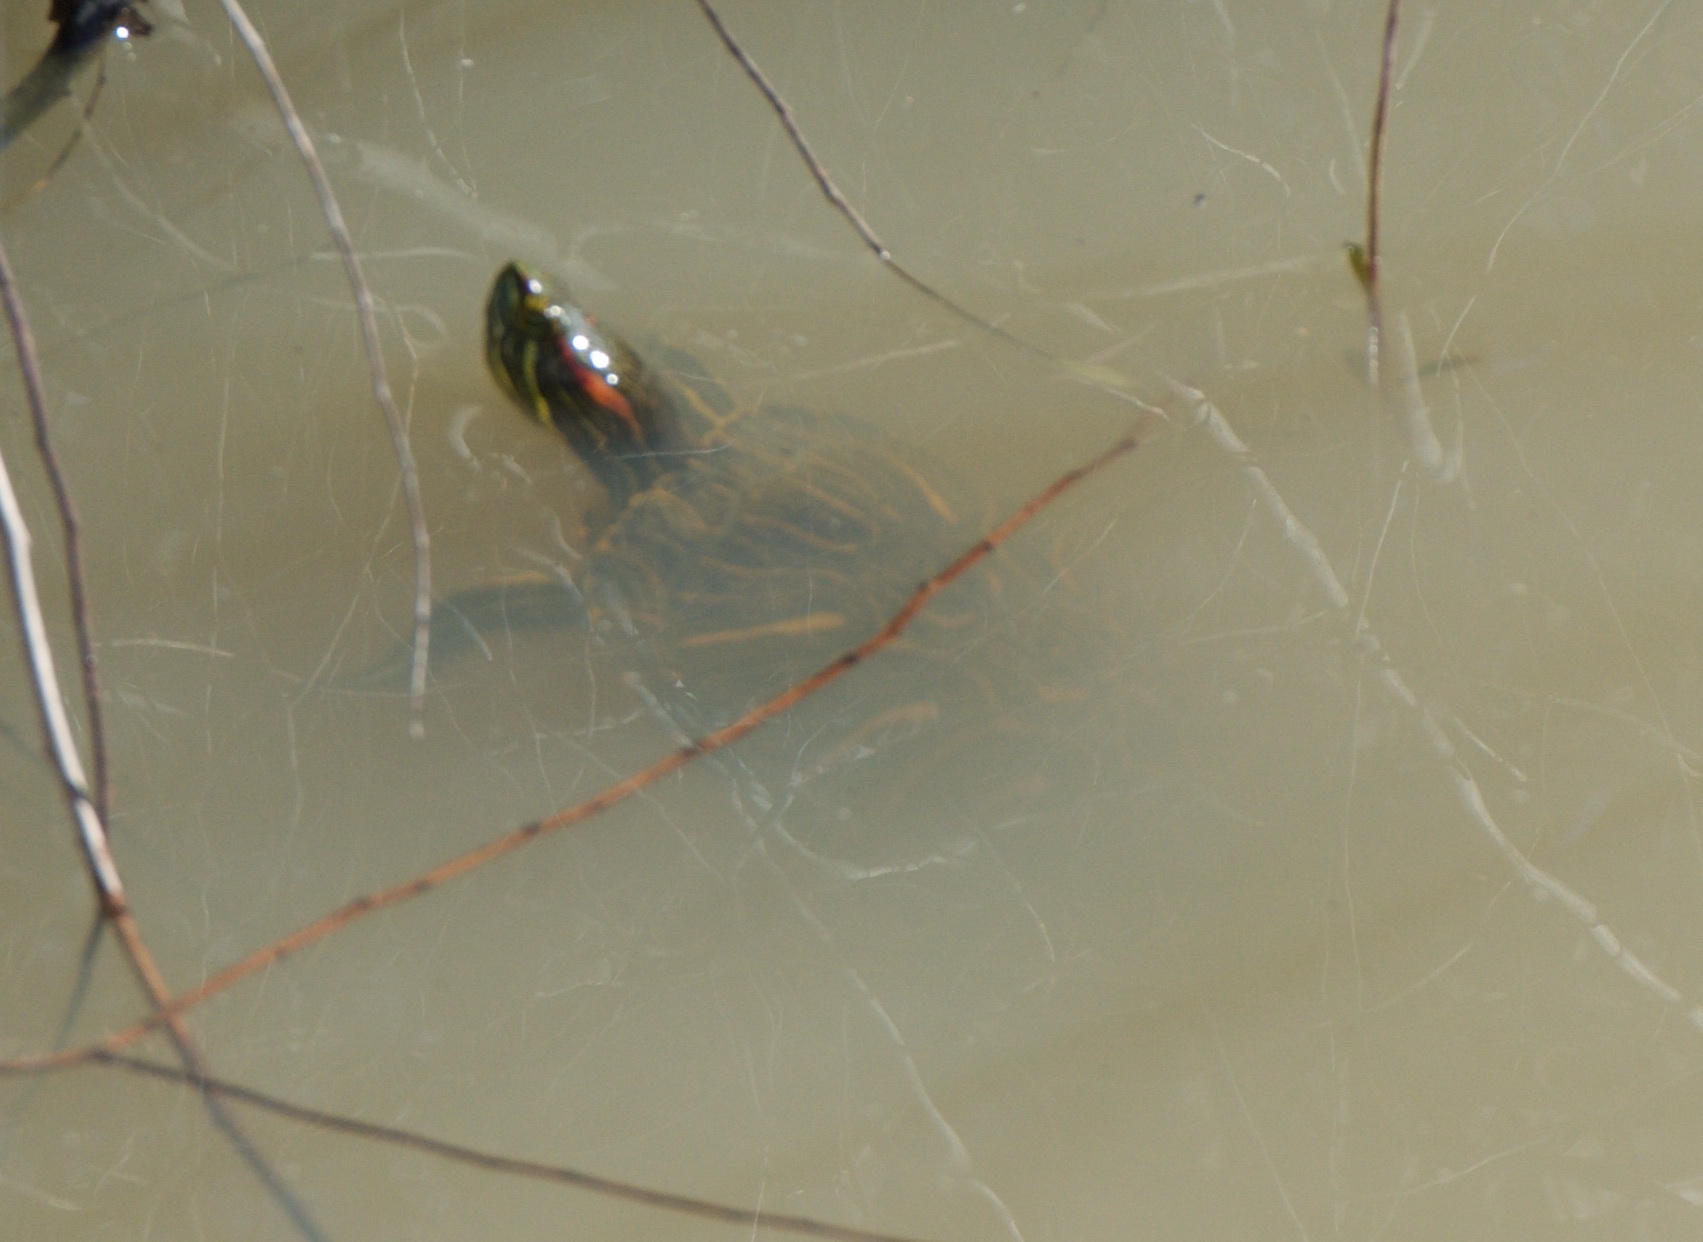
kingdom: Animalia
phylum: Chordata
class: Testudines
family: Emydidae
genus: Trachemys
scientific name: Trachemys scripta
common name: Slider
